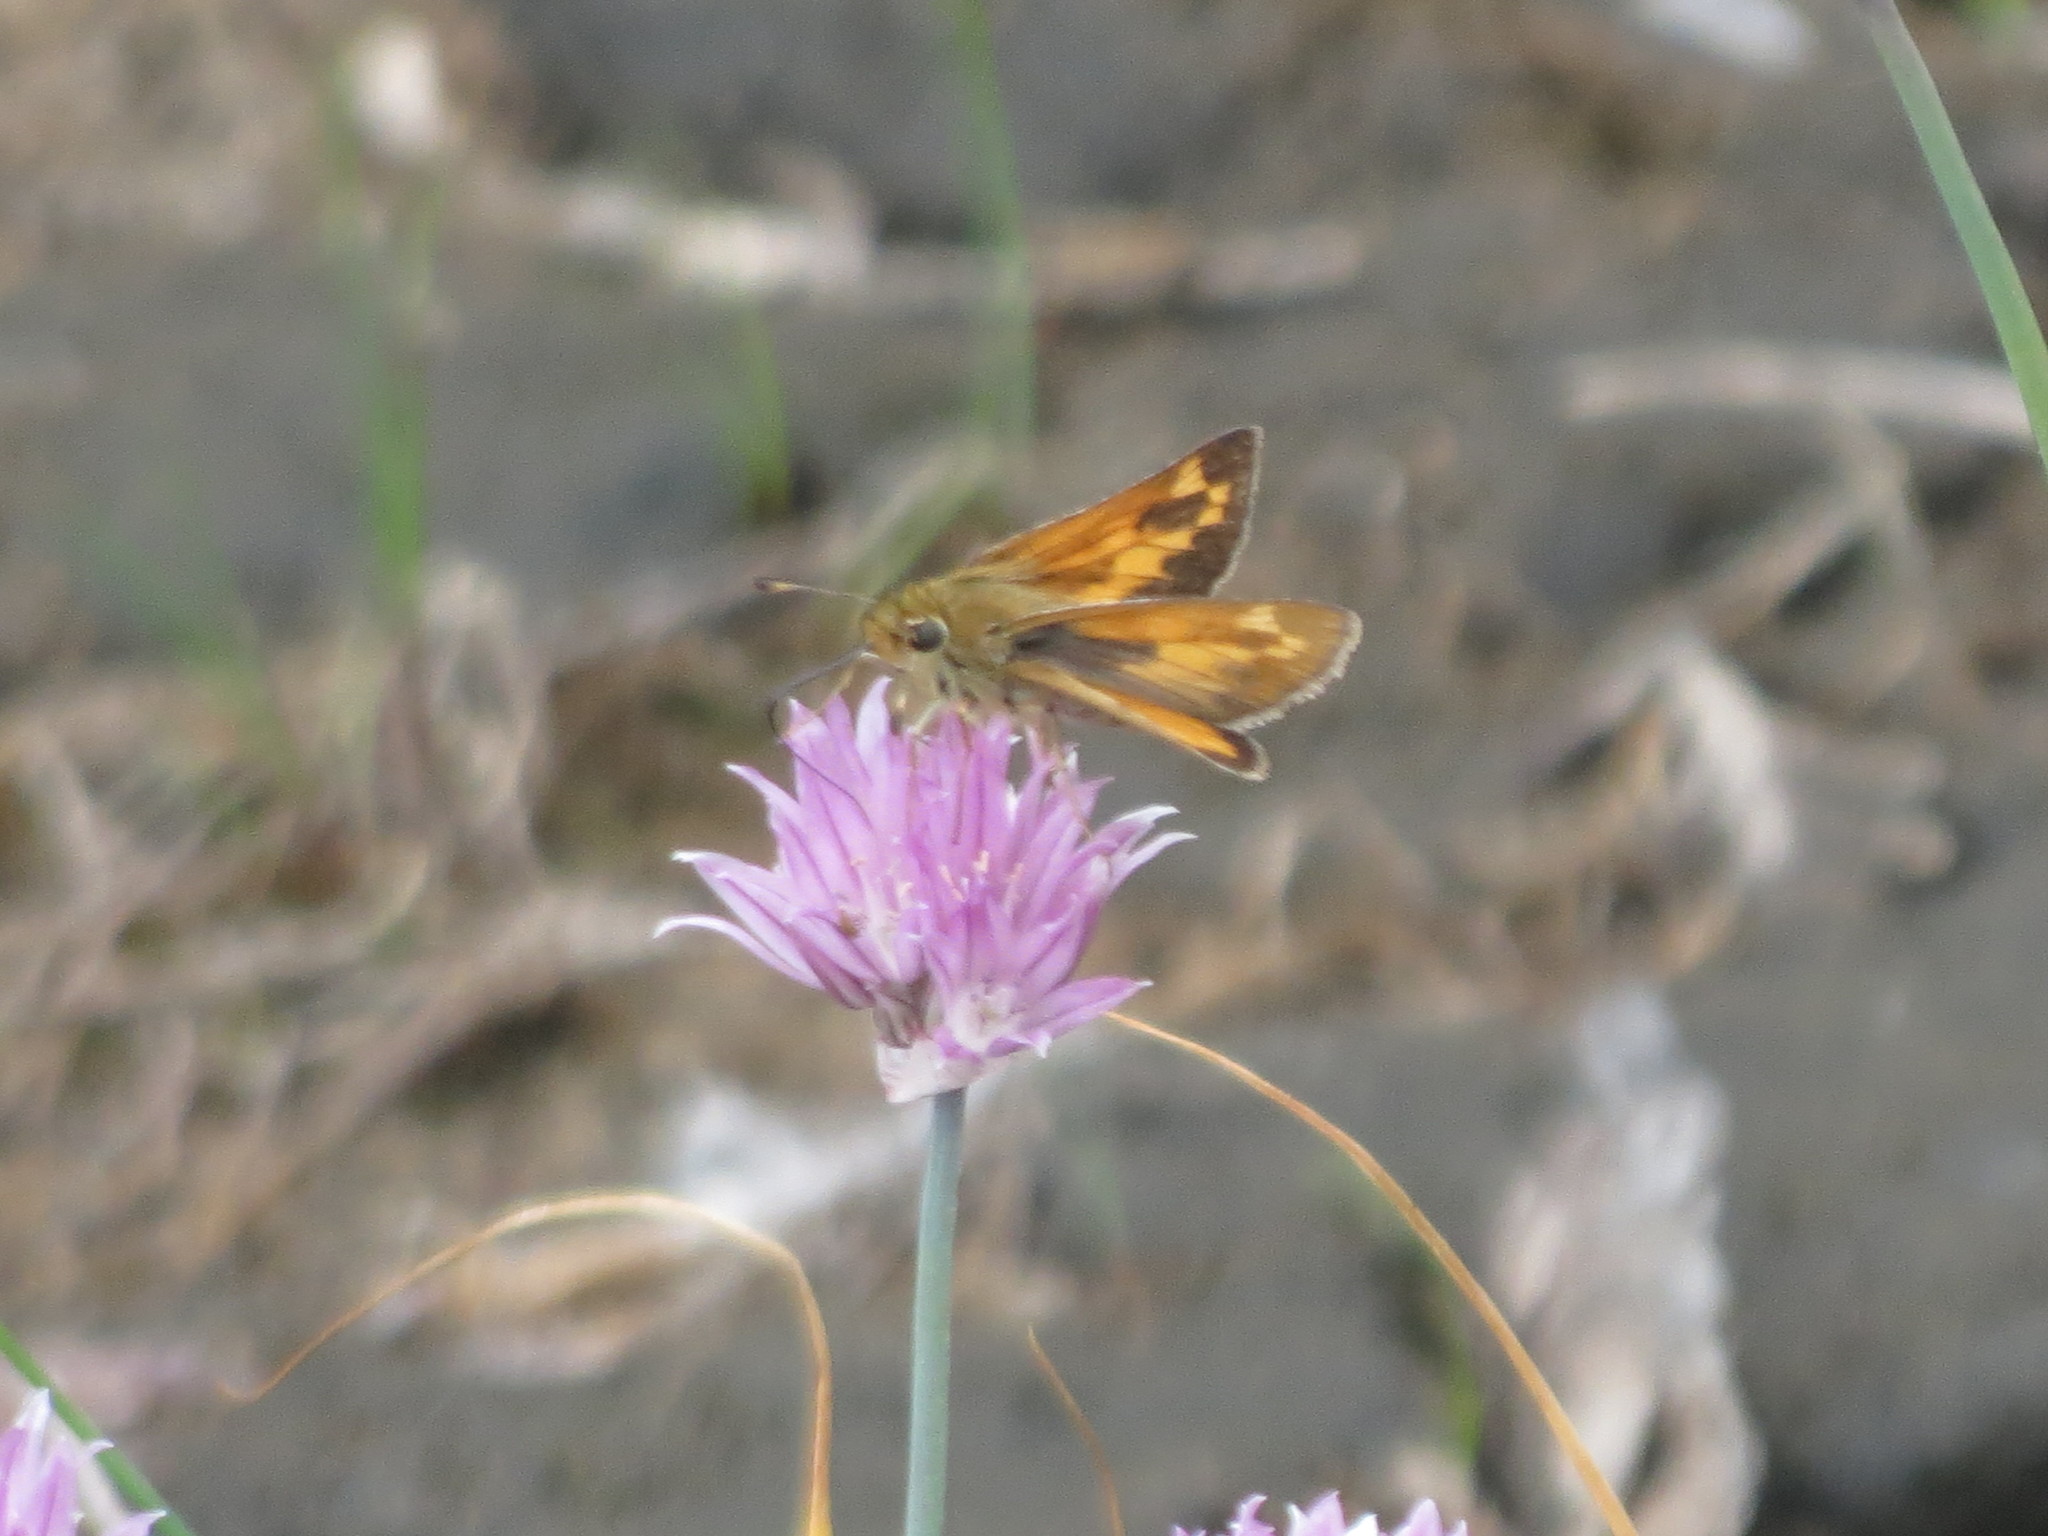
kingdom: Animalia
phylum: Arthropoda
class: Insecta
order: Lepidoptera
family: Hesperiidae
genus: Hesperia
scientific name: Hesperia sassacus
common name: Indian skipper
